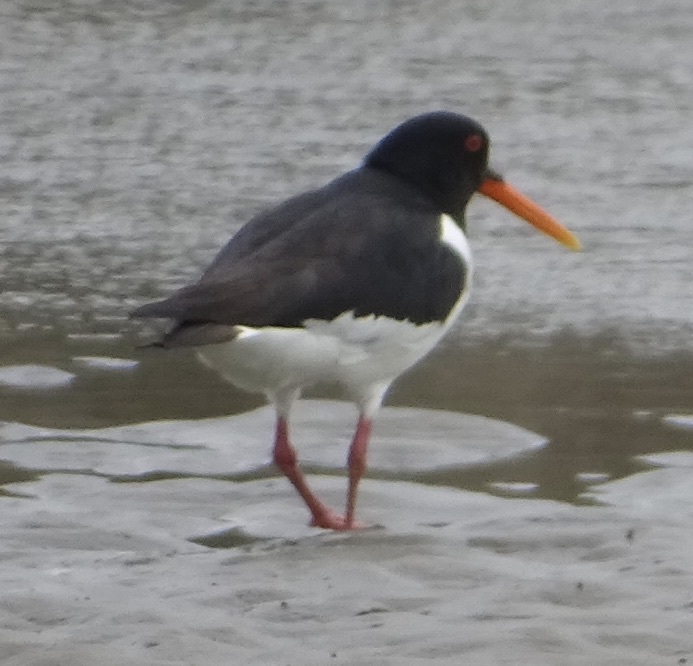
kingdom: Animalia
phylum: Chordata
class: Aves
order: Charadriiformes
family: Haematopodidae
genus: Haematopus
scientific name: Haematopus ostralegus
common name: Eurasian oystercatcher
